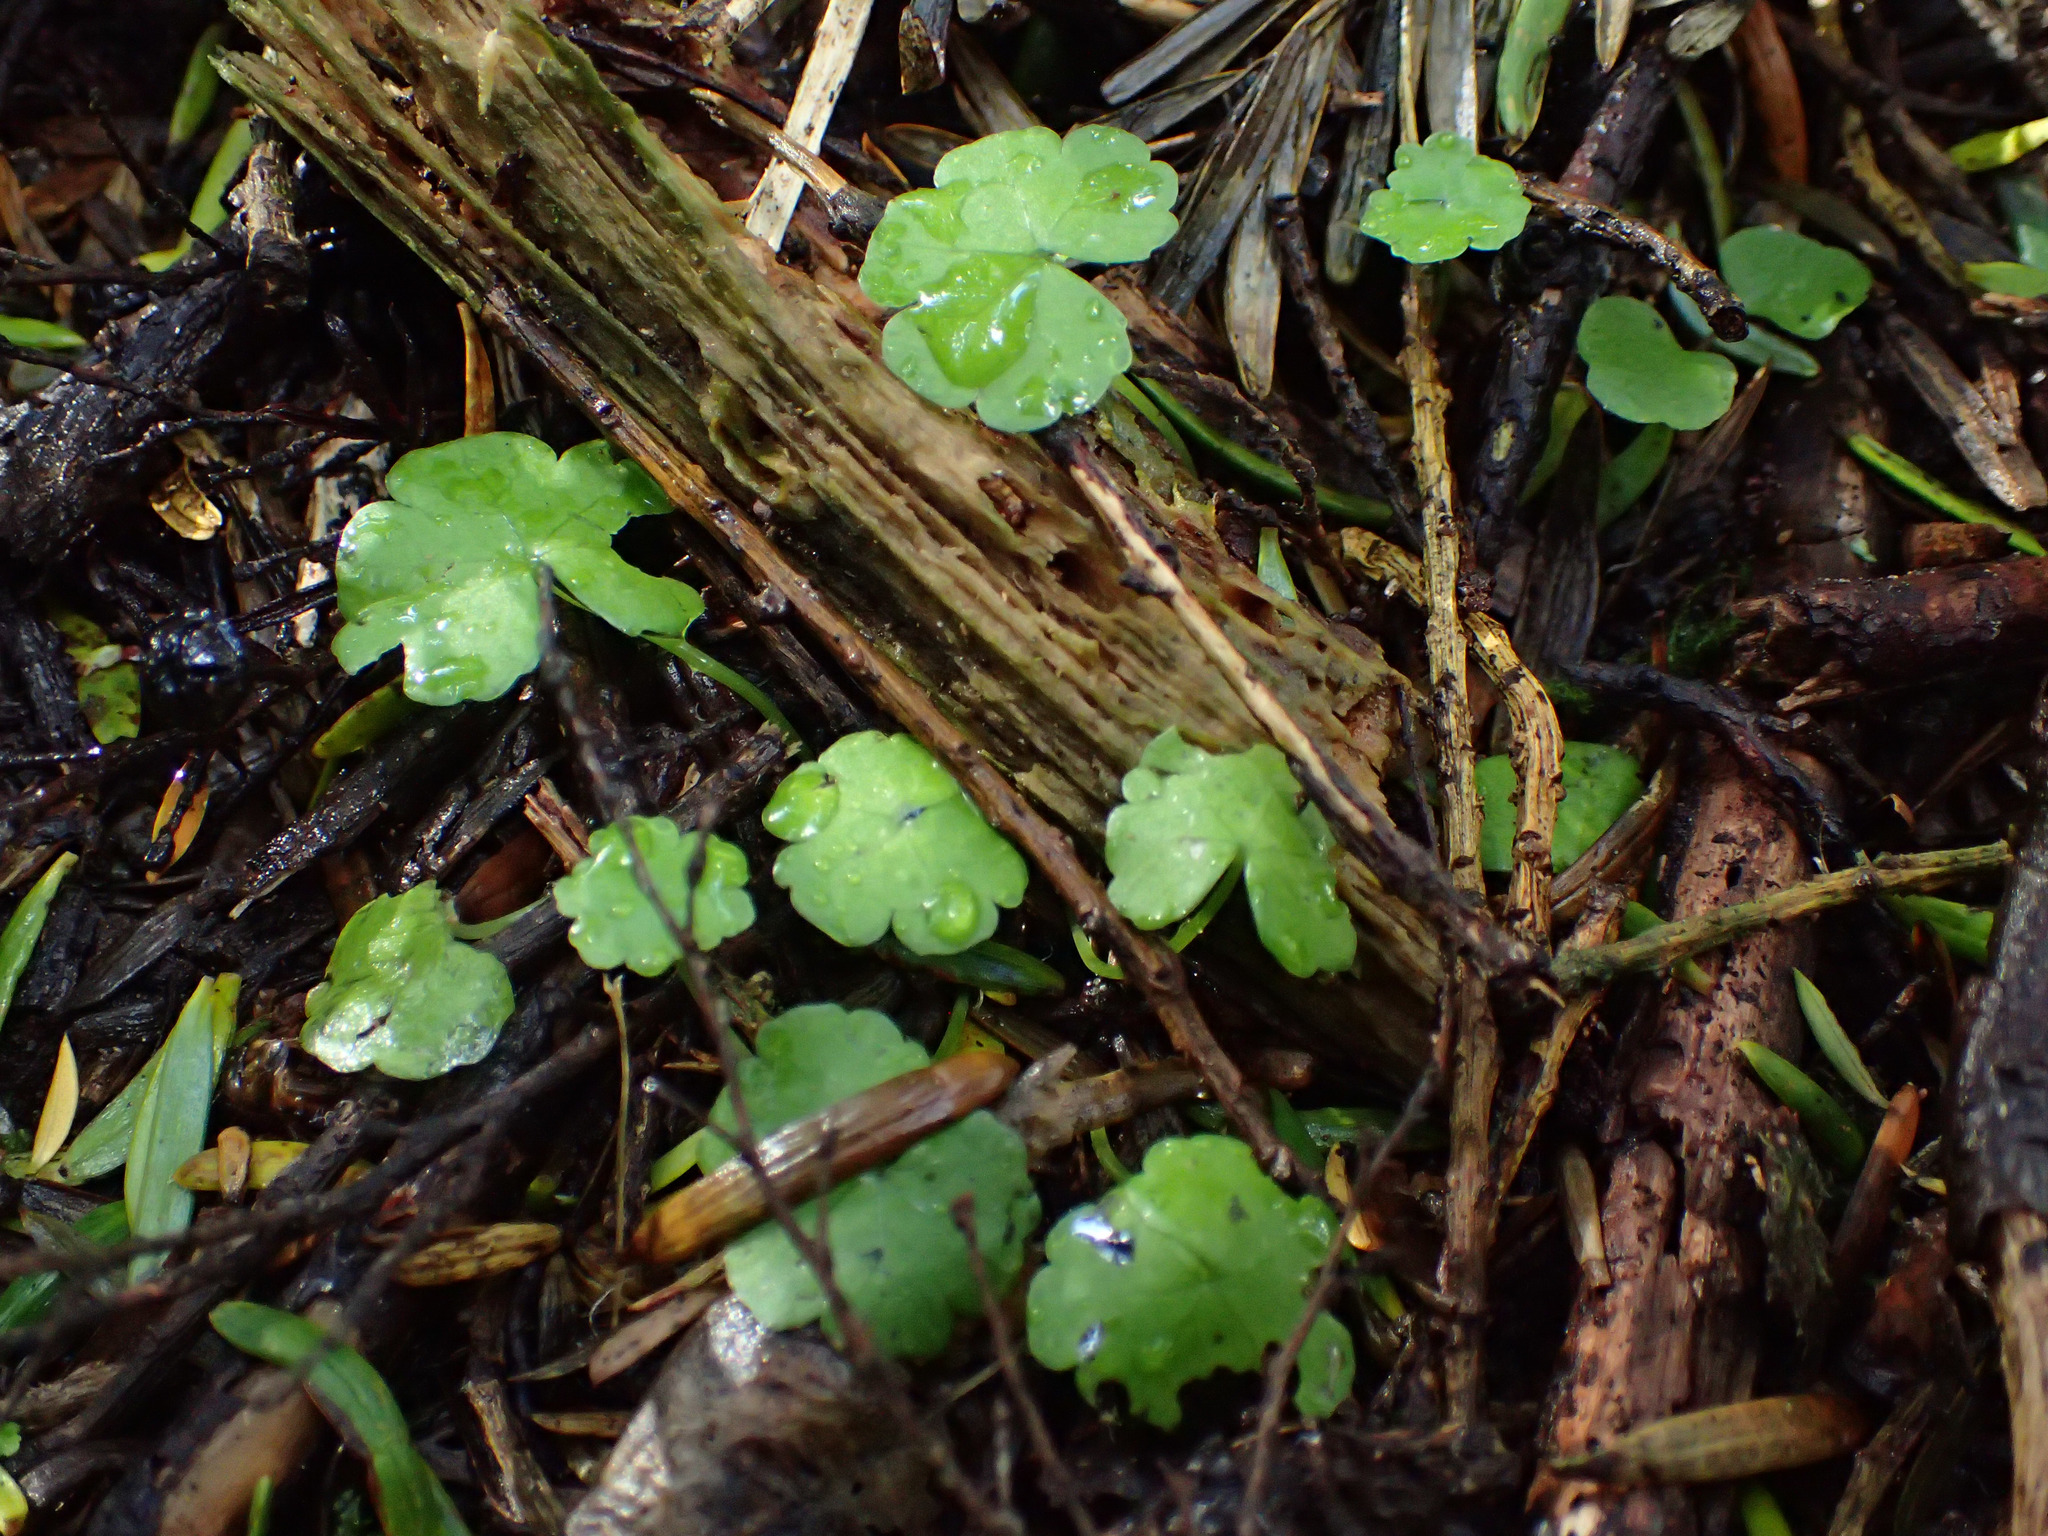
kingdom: Plantae
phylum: Tracheophyta
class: Magnoliopsida
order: Apiales
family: Araliaceae
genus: Hydrocotyle
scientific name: Hydrocotyle heteromeria
